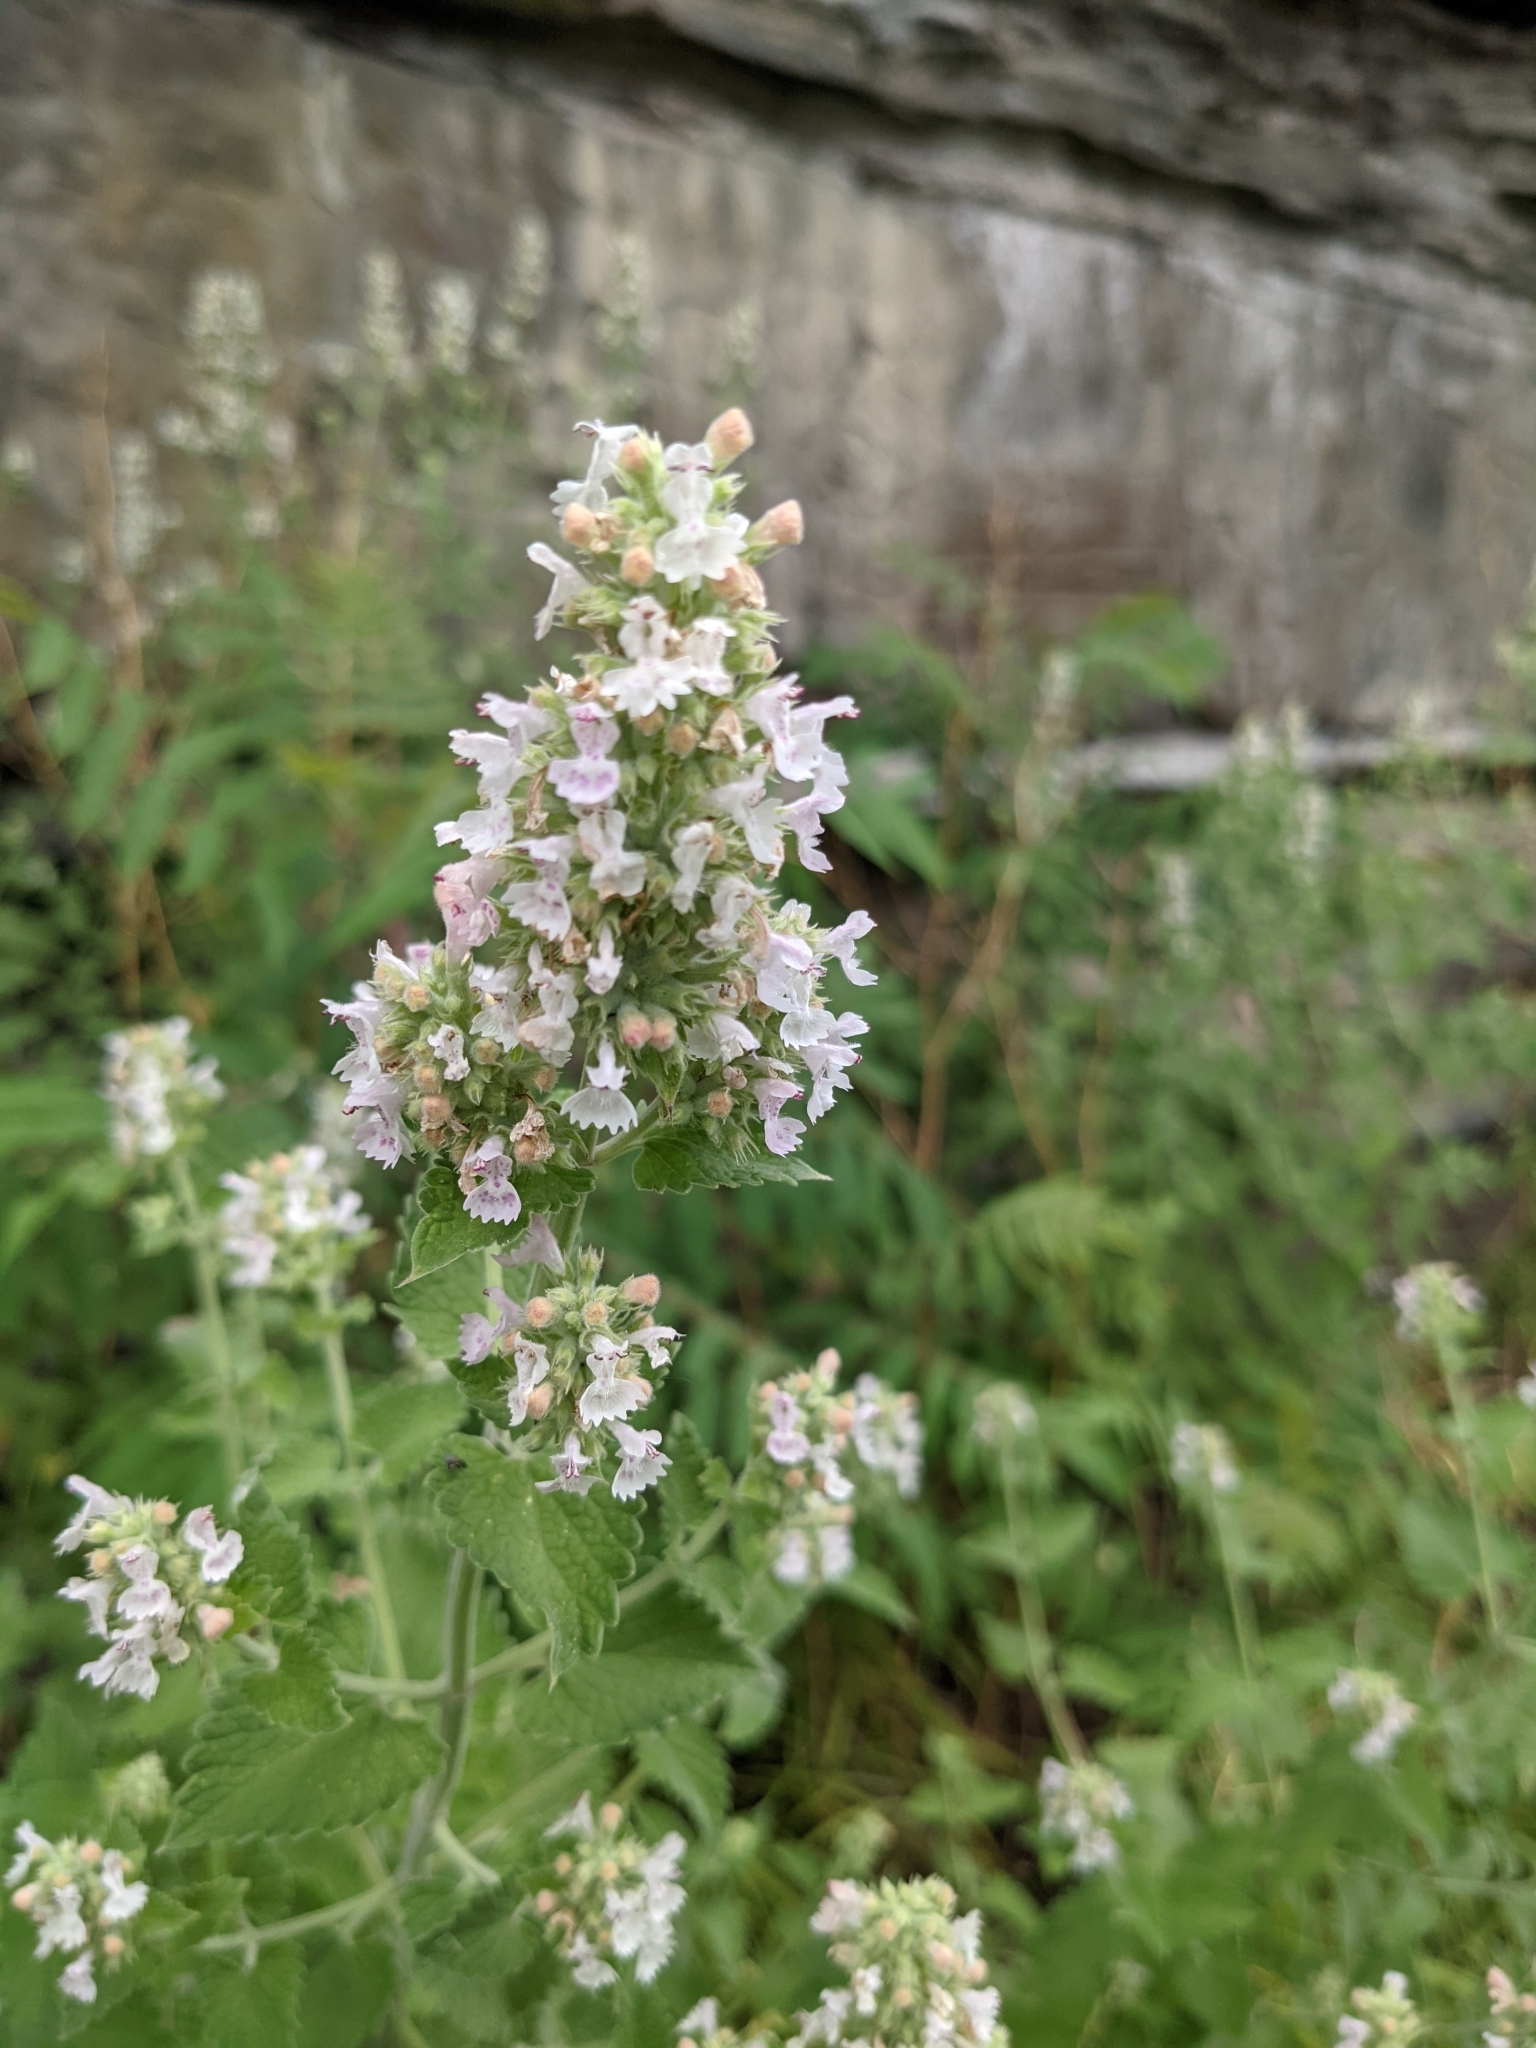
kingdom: Plantae
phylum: Tracheophyta
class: Magnoliopsida
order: Lamiales
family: Lamiaceae
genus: Nepeta
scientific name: Nepeta cataria
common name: Catnip
